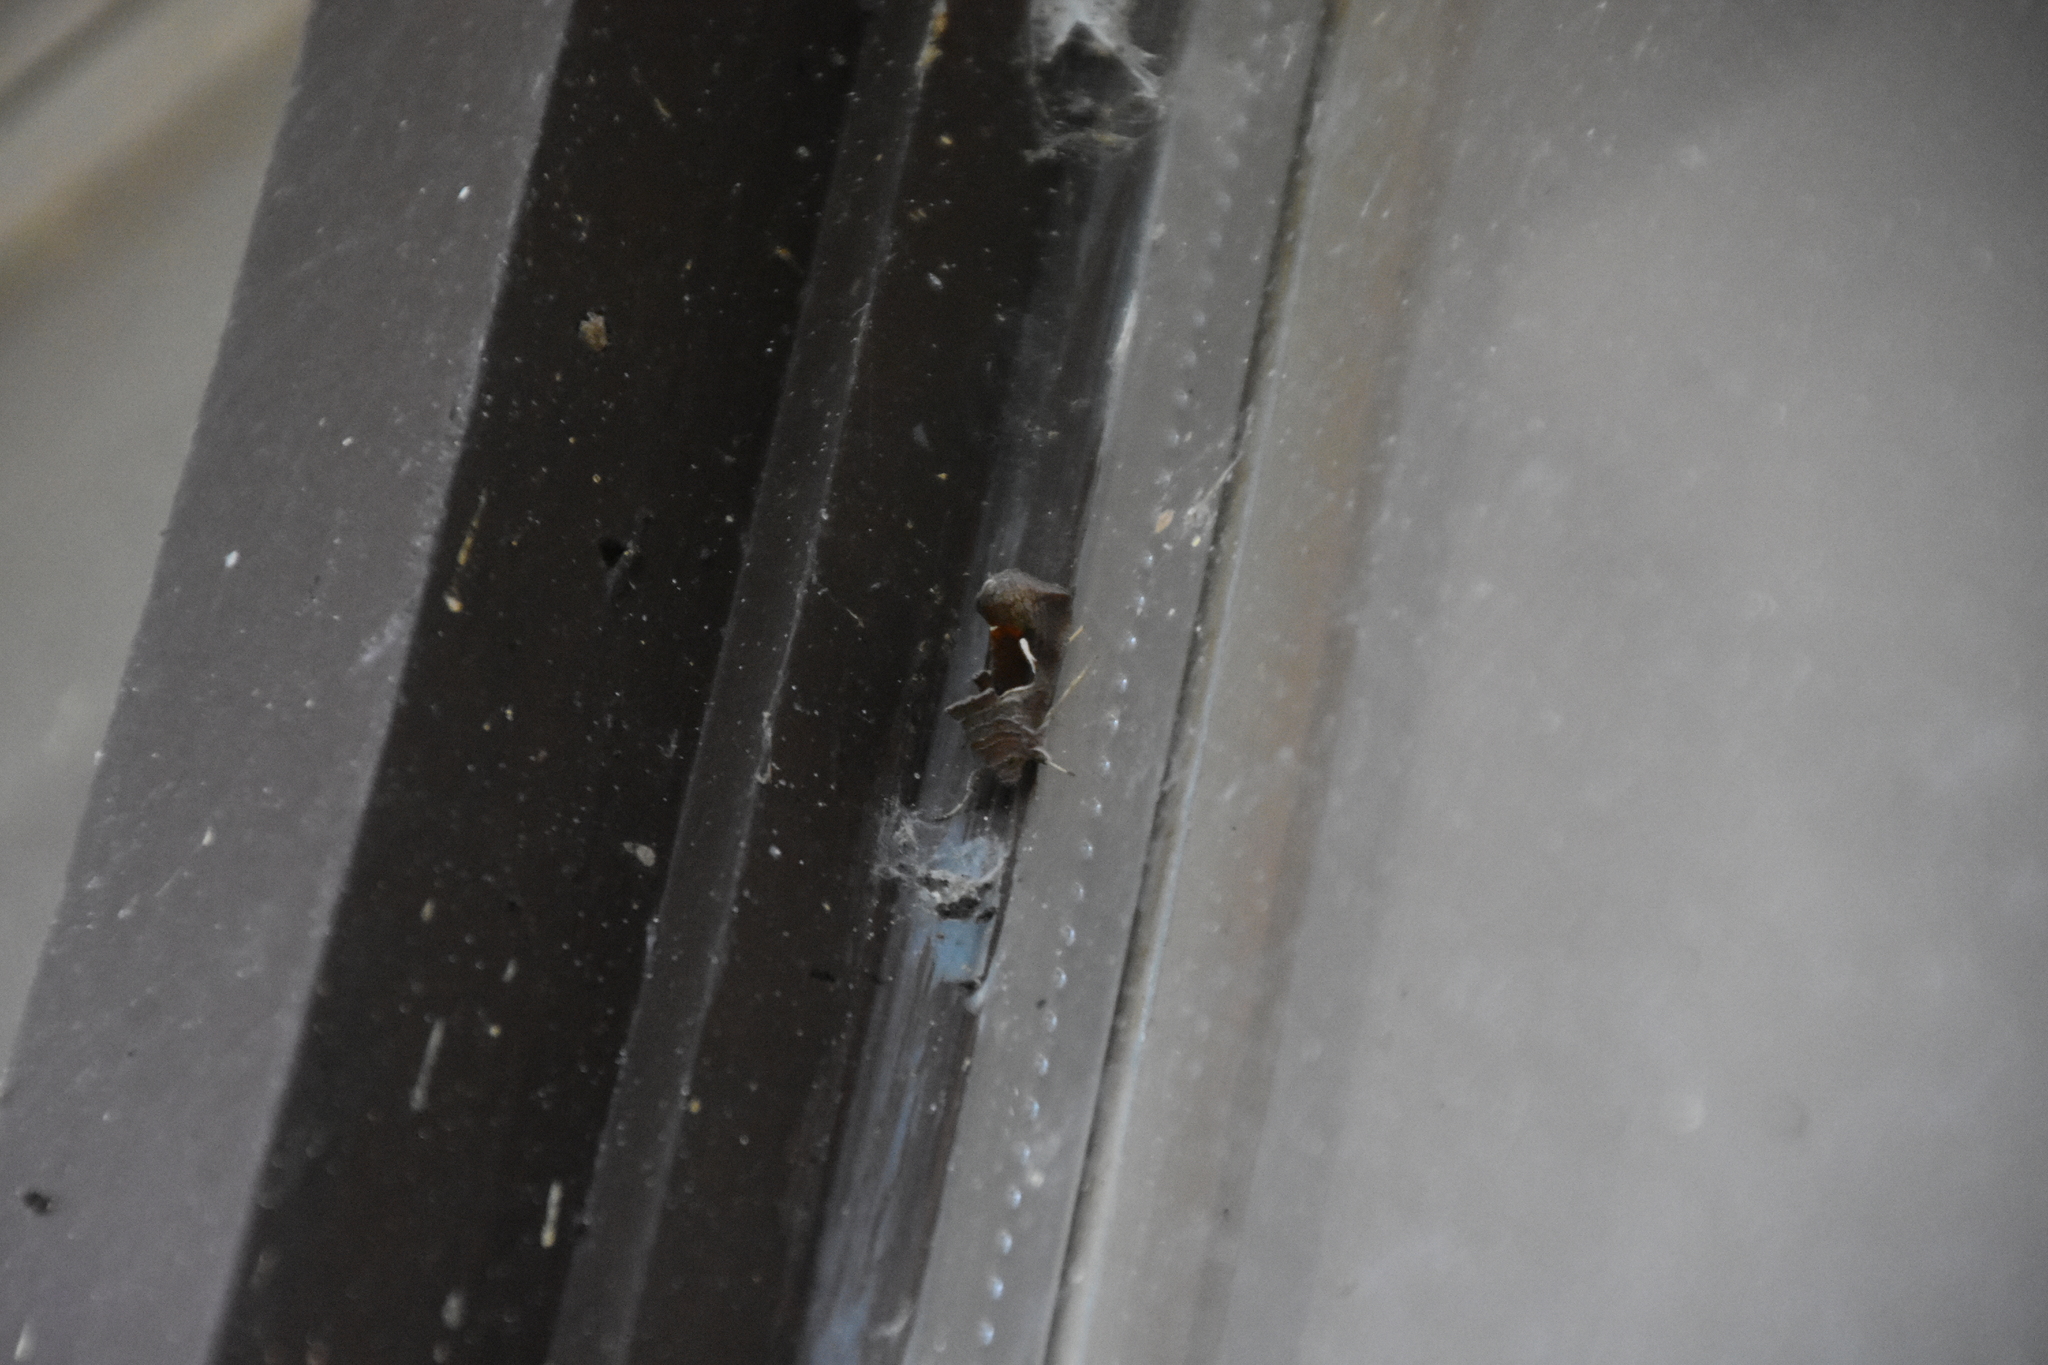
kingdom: Animalia
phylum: Arthropoda
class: Insecta
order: Lepidoptera
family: Noctuidae
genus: Anagrapha
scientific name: Anagrapha falcifera
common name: Celery looper
